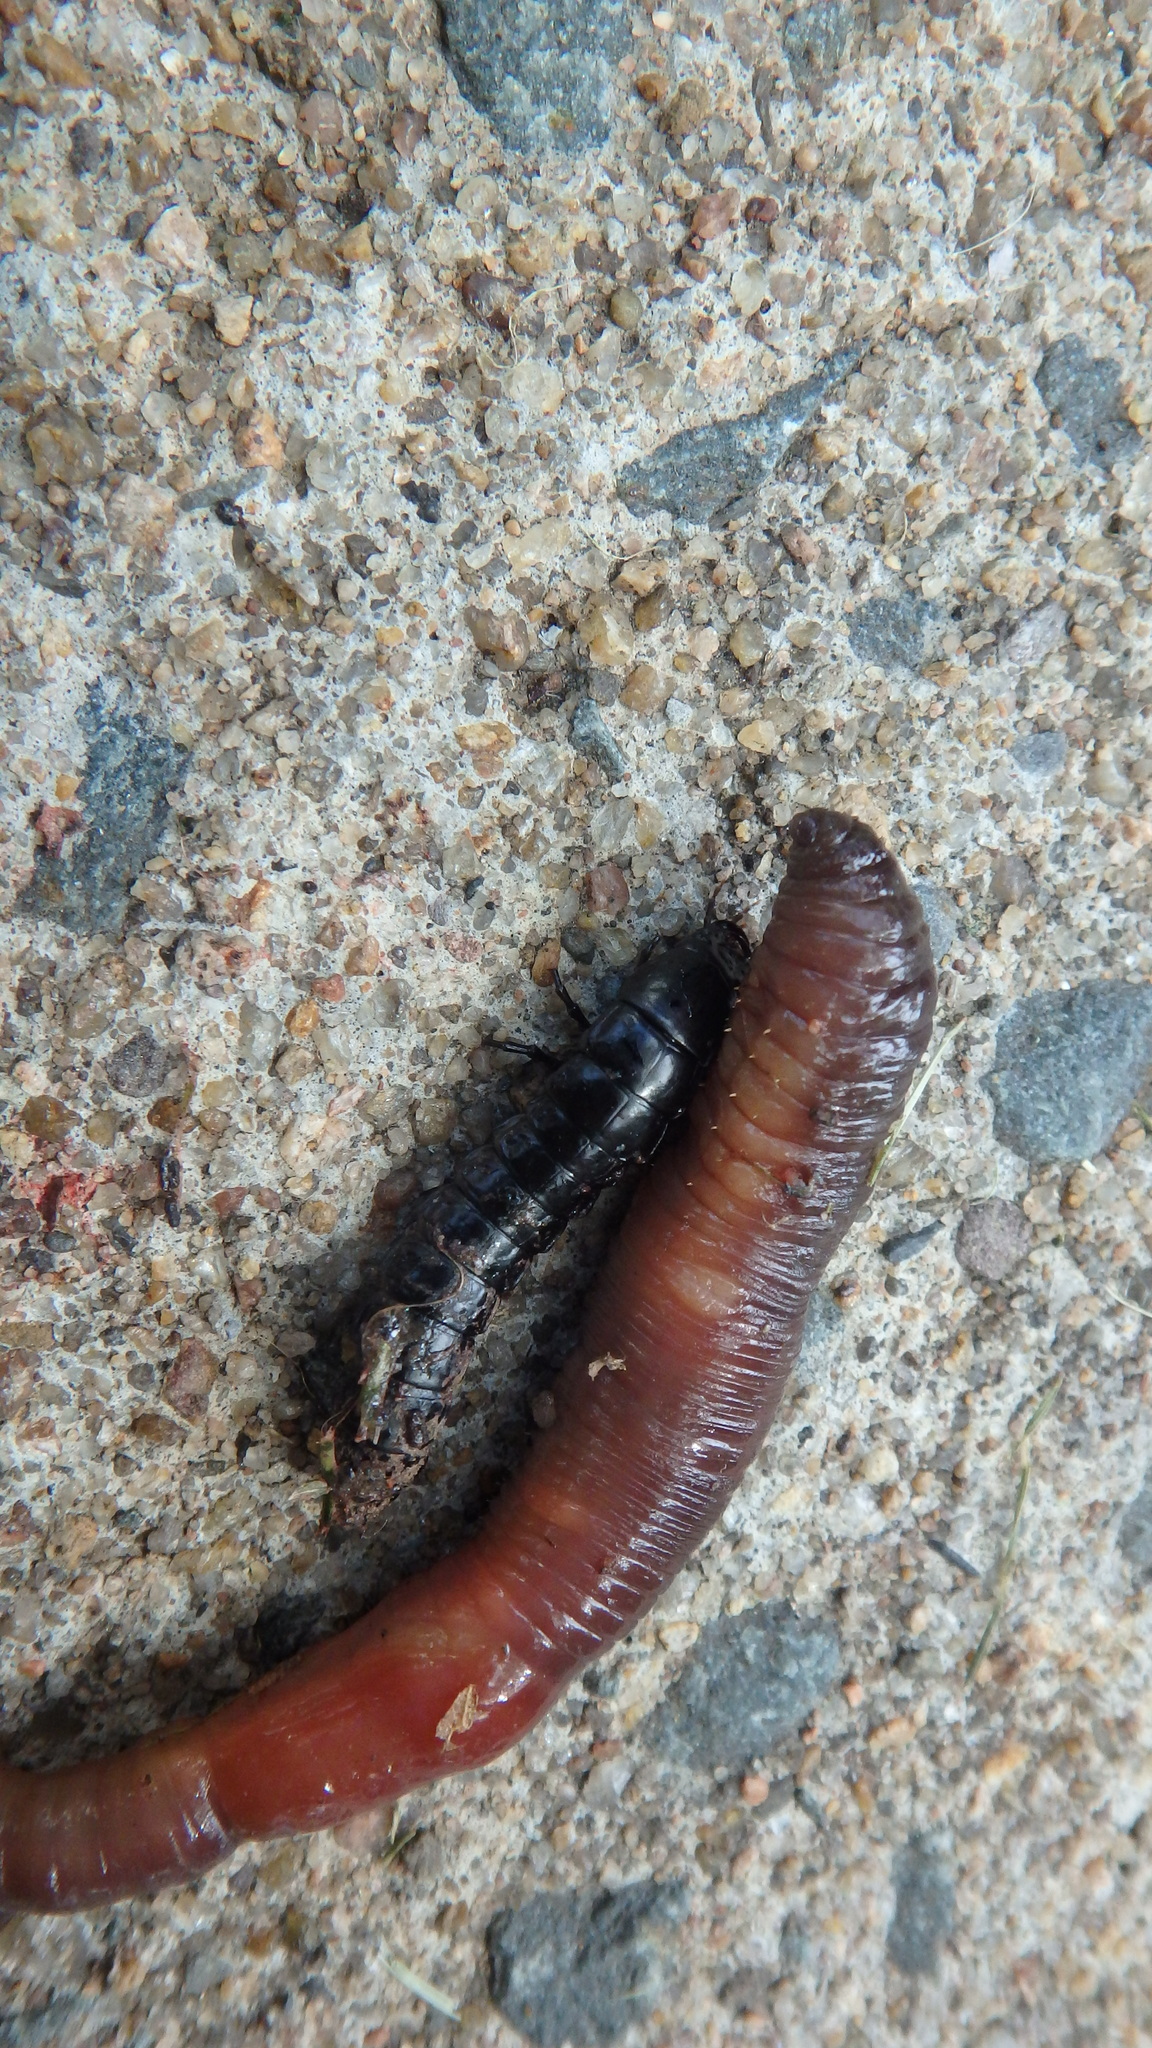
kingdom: Animalia
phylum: Arthropoda
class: Insecta
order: Coleoptera
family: Carabidae
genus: Carabus
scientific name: Carabus
